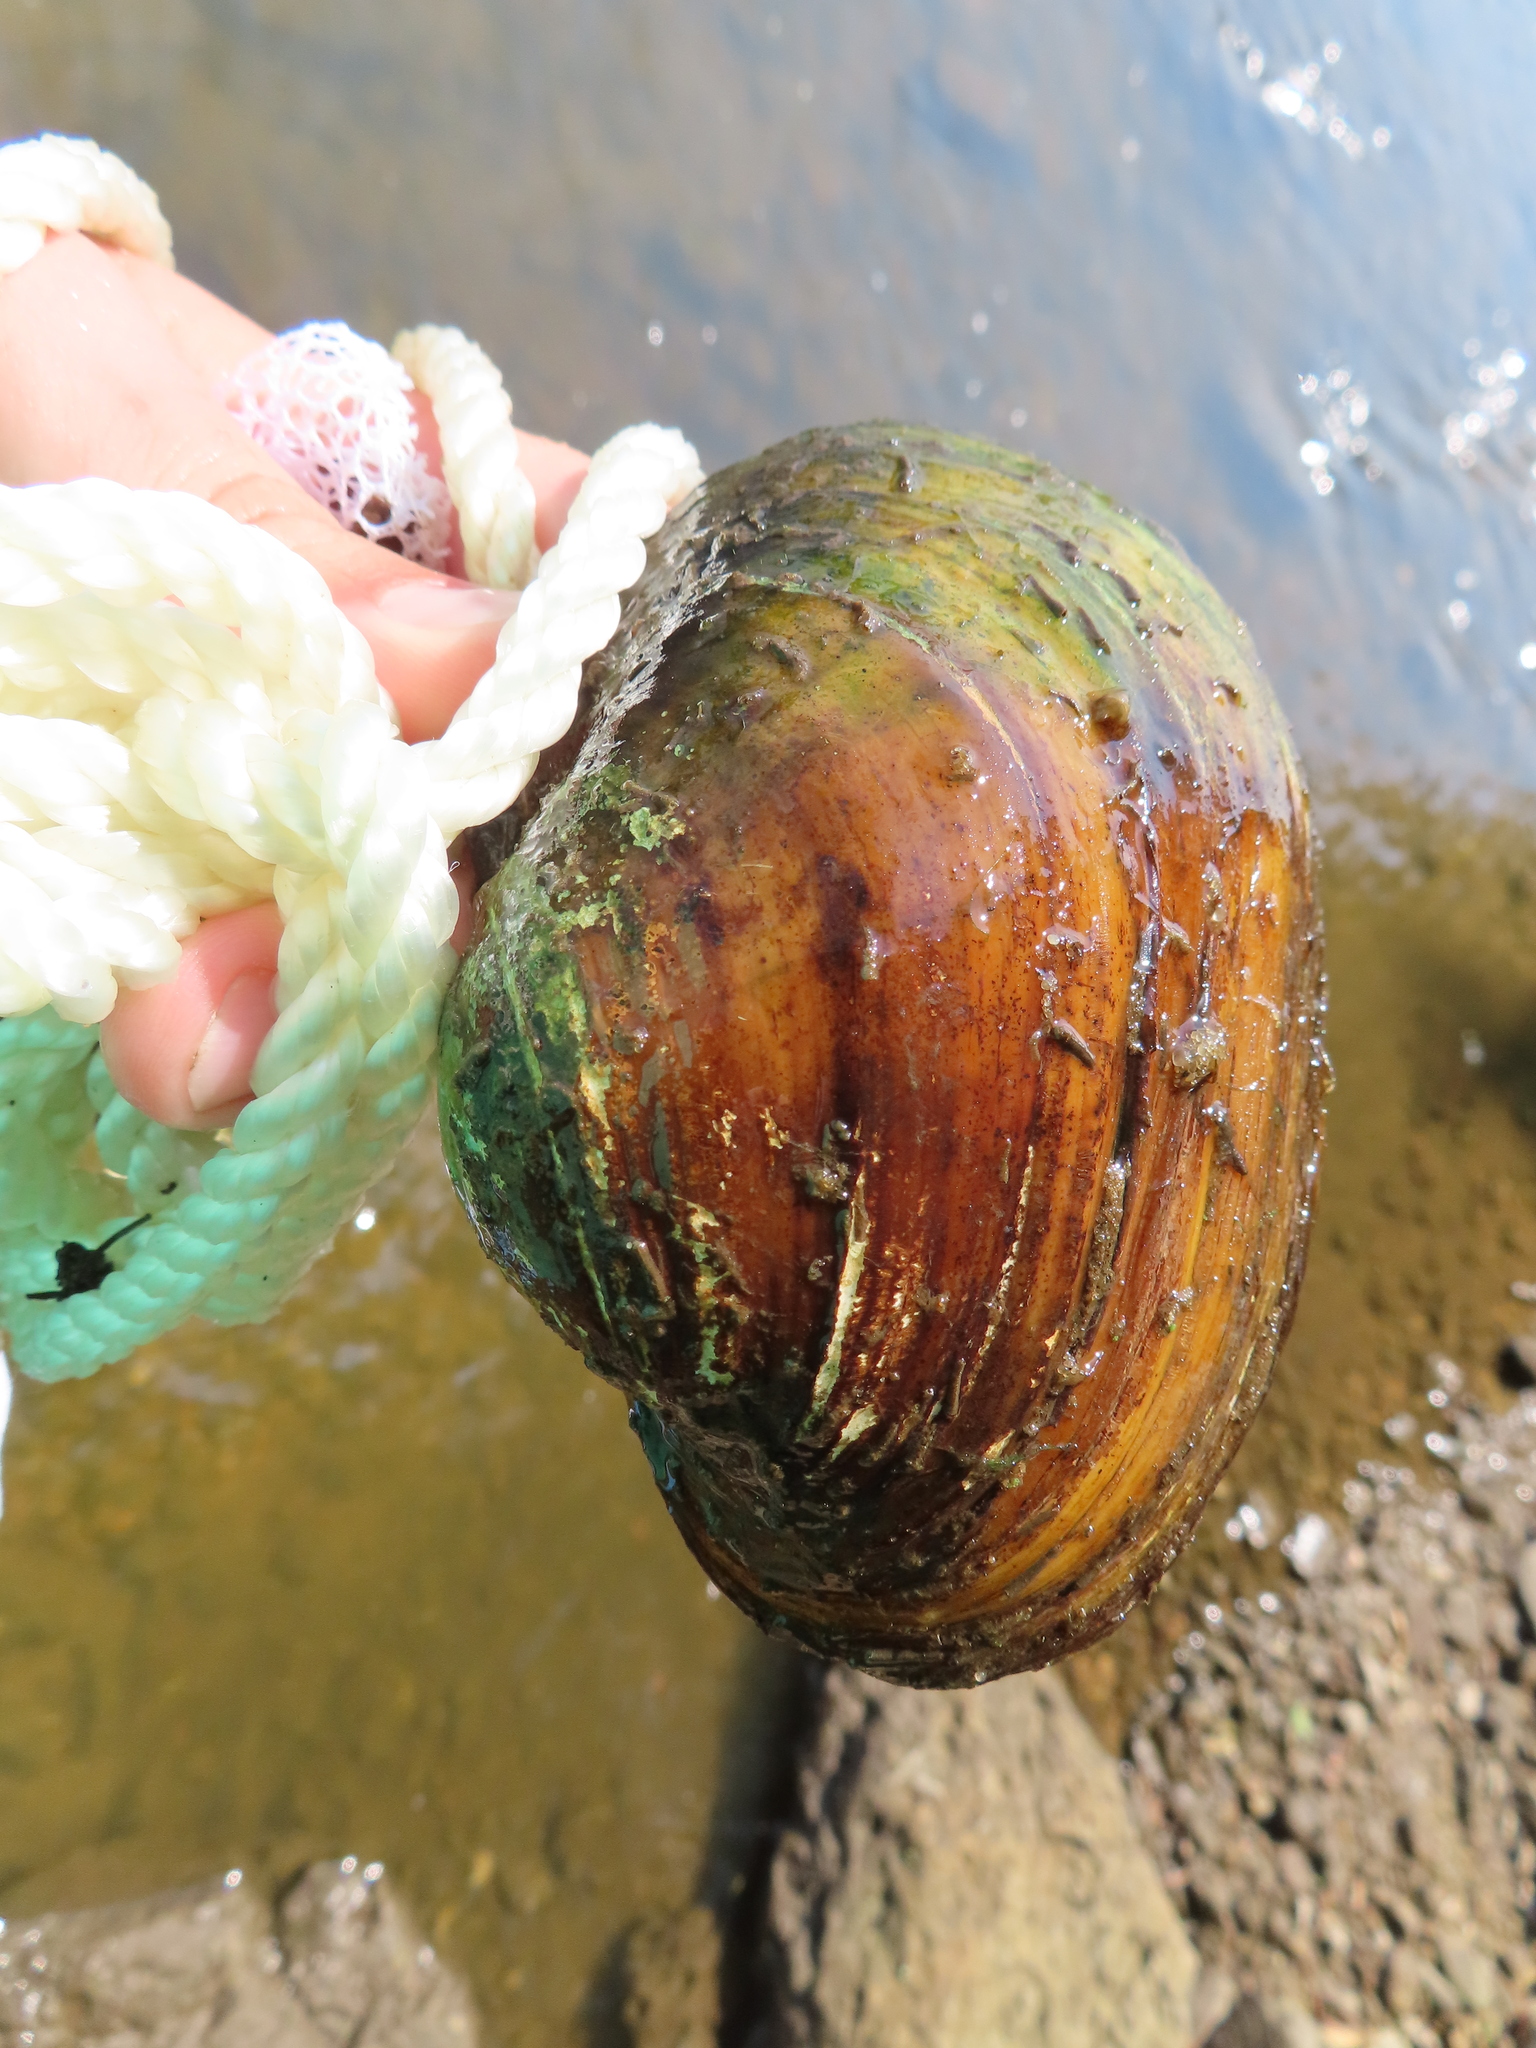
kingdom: Animalia
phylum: Mollusca
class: Bivalvia
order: Unionida
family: Unionidae
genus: Lampsilis
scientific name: Lampsilis cardium
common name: Plain pocketbook
